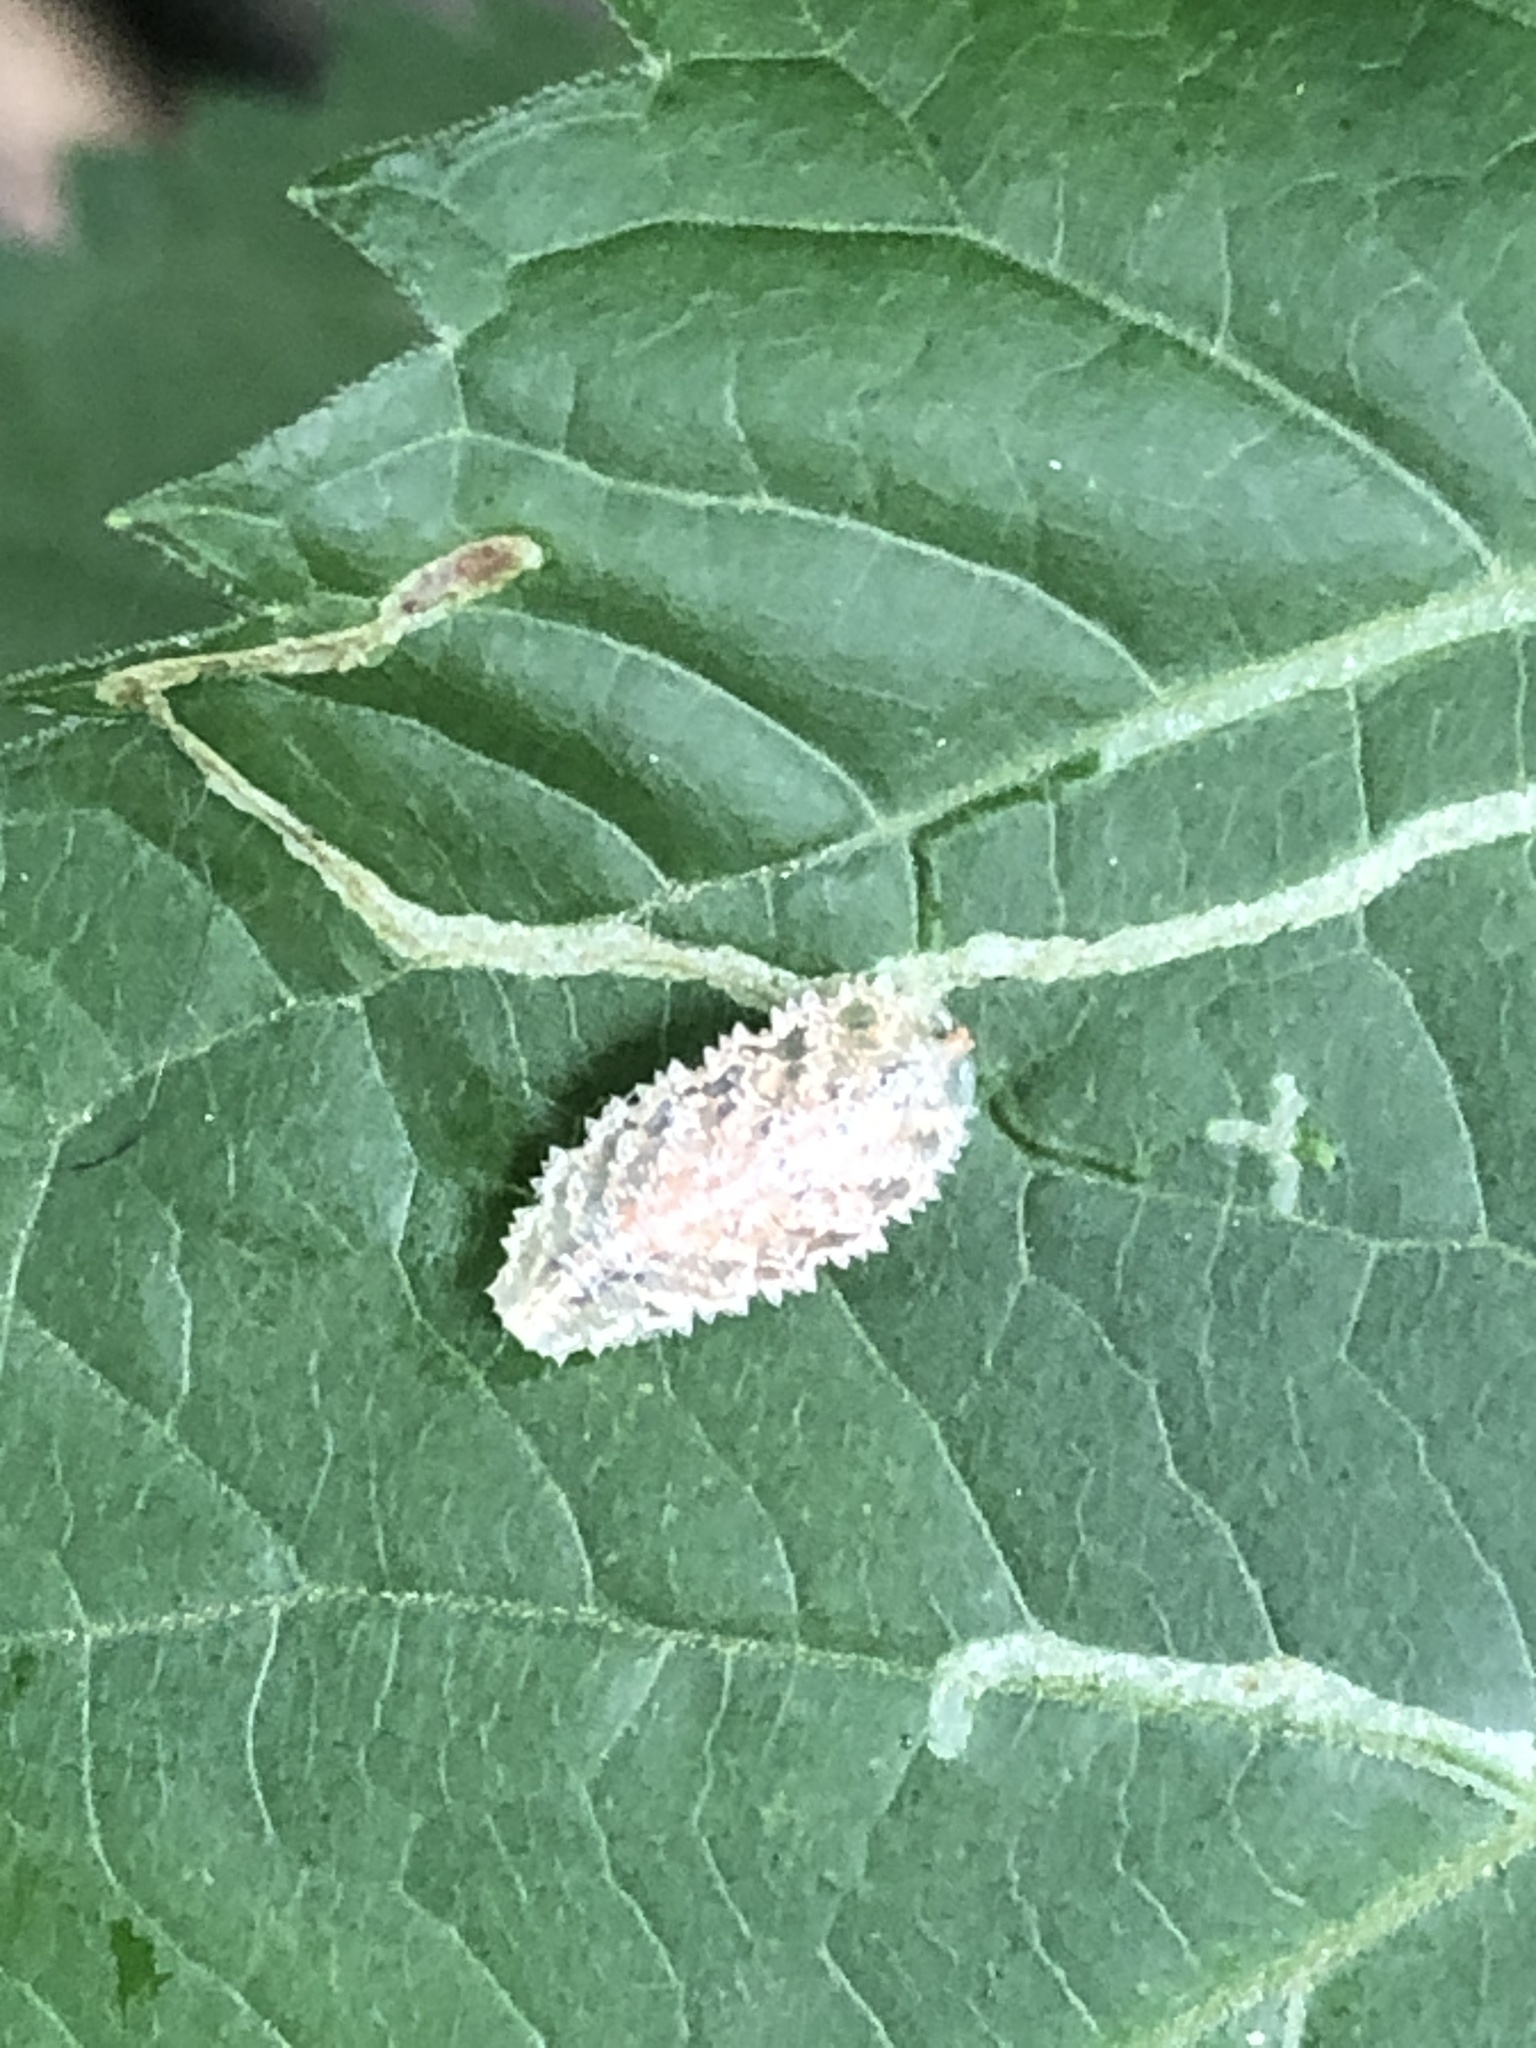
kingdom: Animalia
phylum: Arthropoda
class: Insecta
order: Diptera
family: Syrphidae
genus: Epistrophella
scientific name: Epistrophella emarginata
